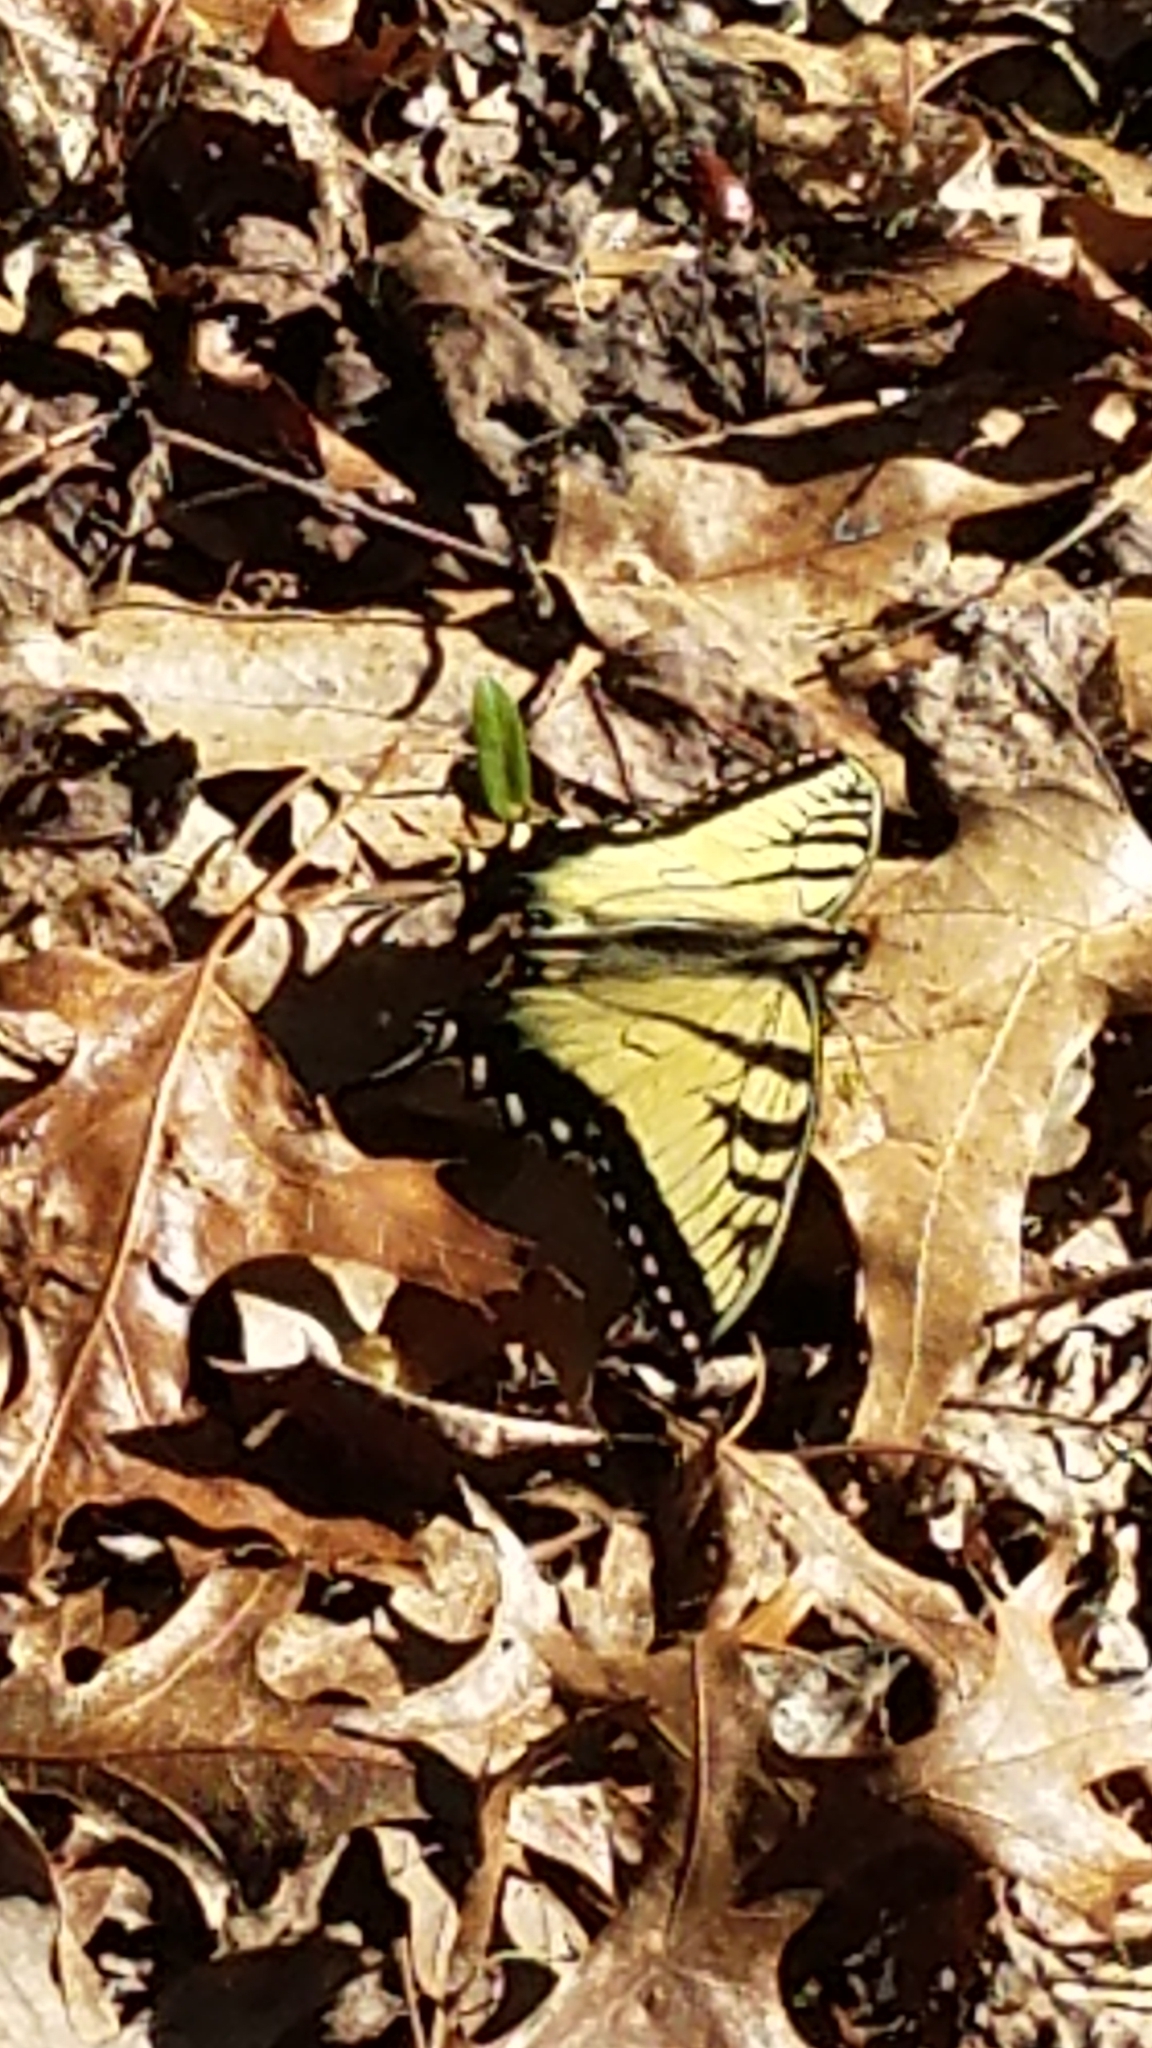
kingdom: Animalia
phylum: Arthropoda
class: Insecta
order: Lepidoptera
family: Papilionidae
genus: Papilio
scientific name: Papilio glaucus
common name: Tiger swallowtail
